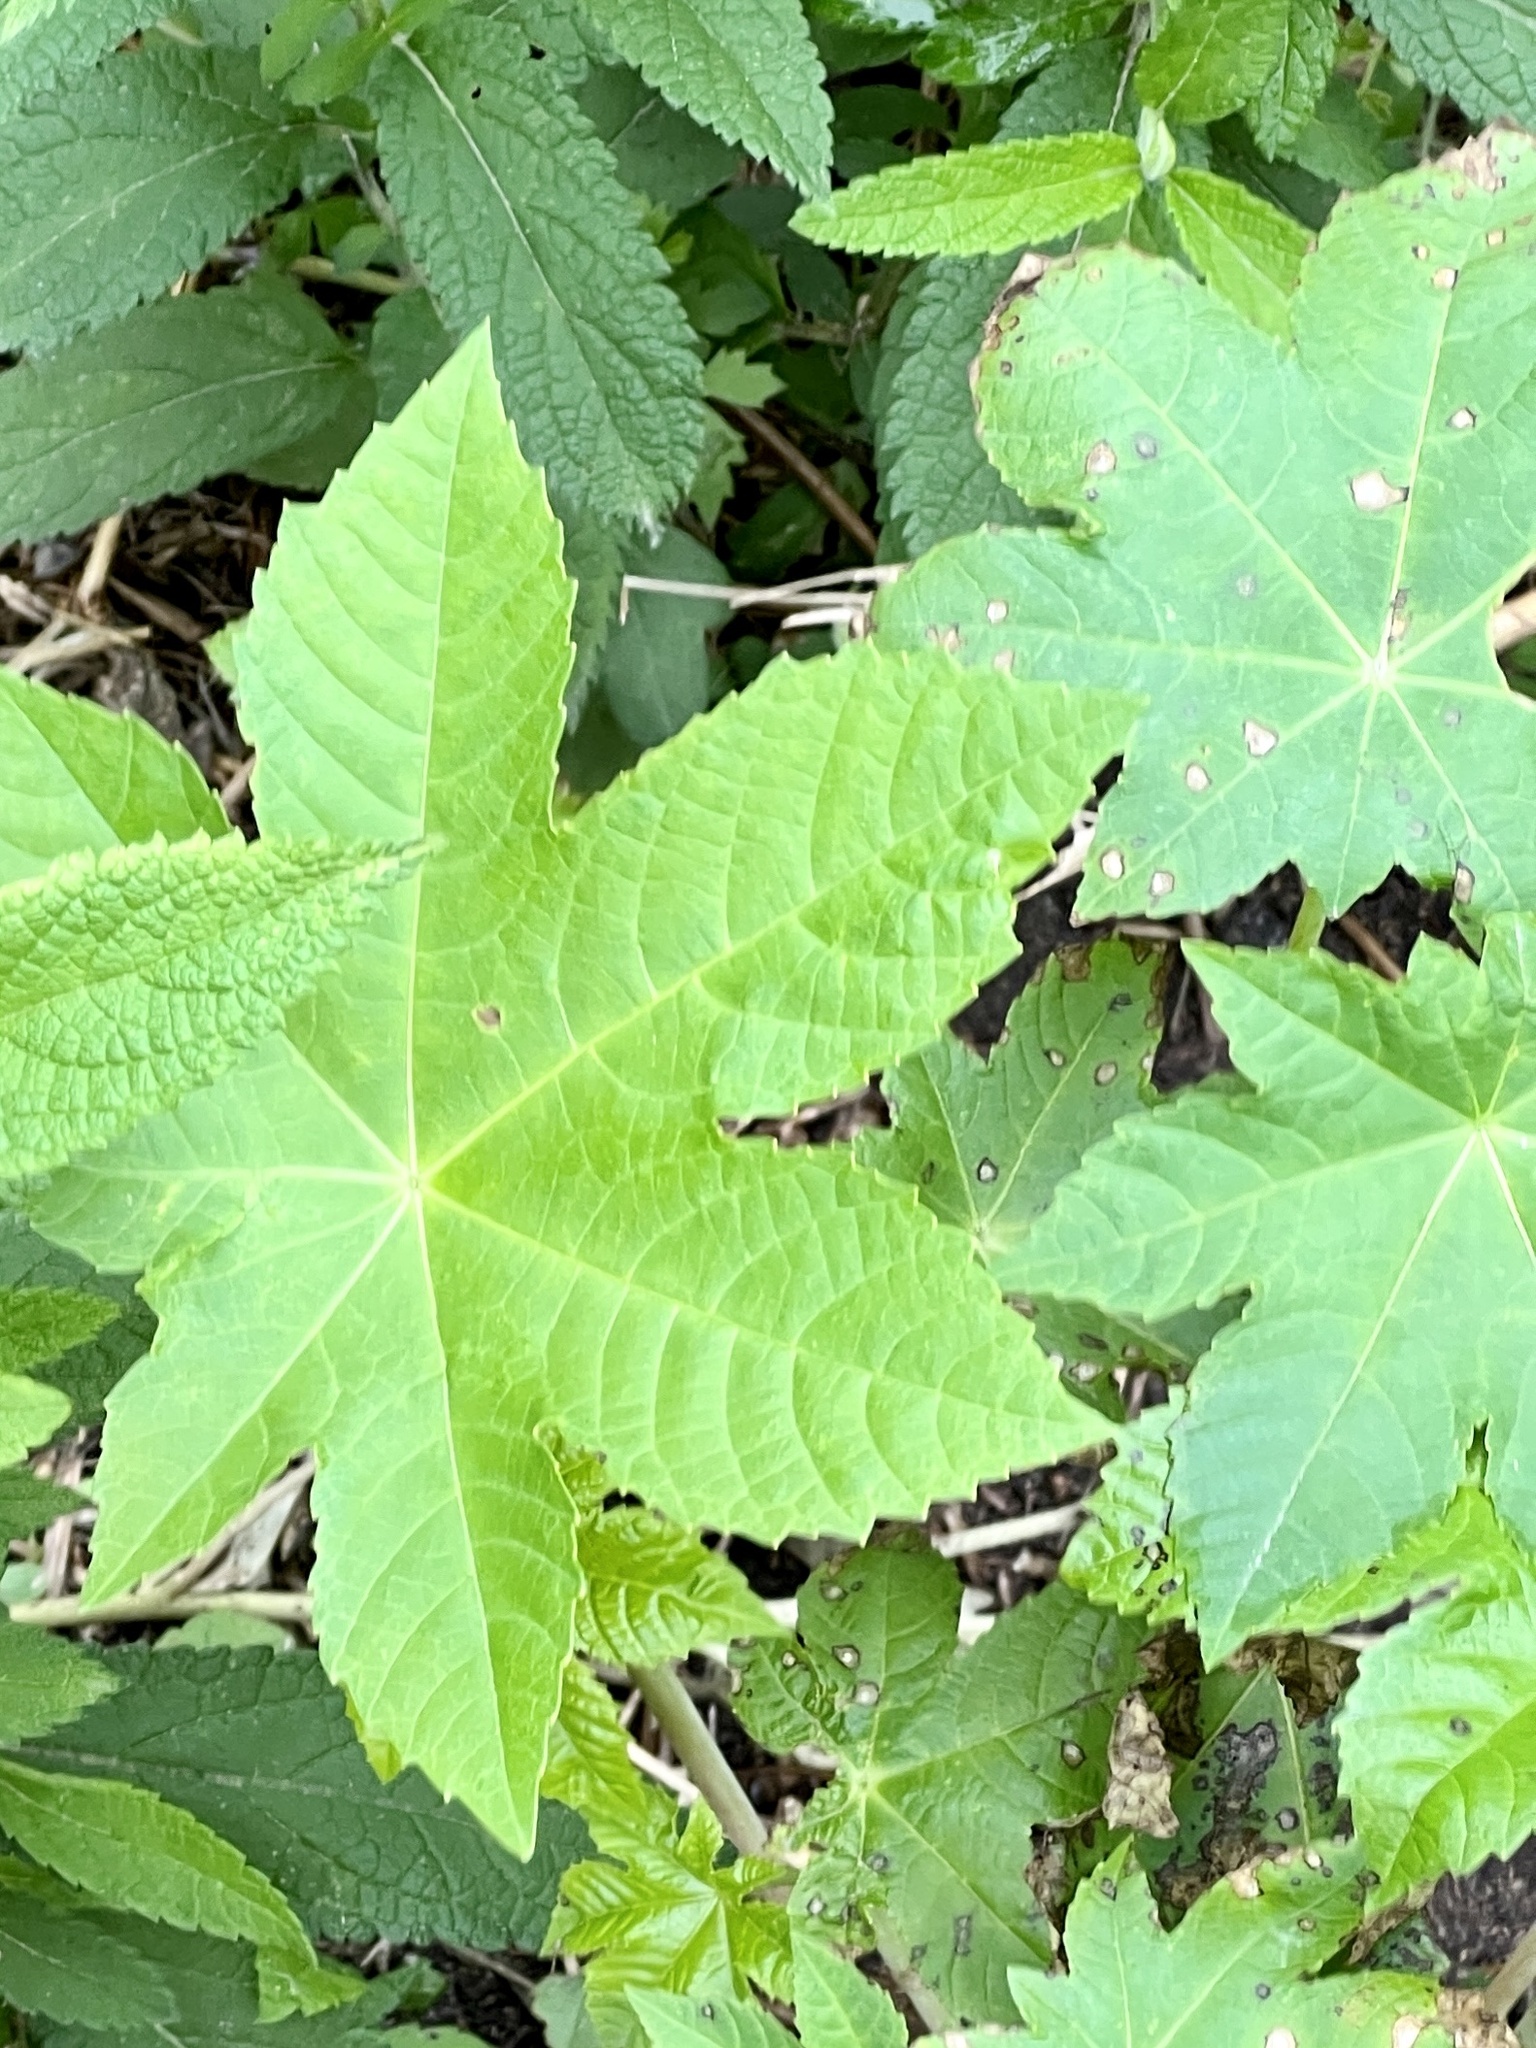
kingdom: Plantae
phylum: Tracheophyta
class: Magnoliopsida
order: Malpighiales
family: Euphorbiaceae
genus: Ricinus
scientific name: Ricinus communis
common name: Castor-oil-plant
